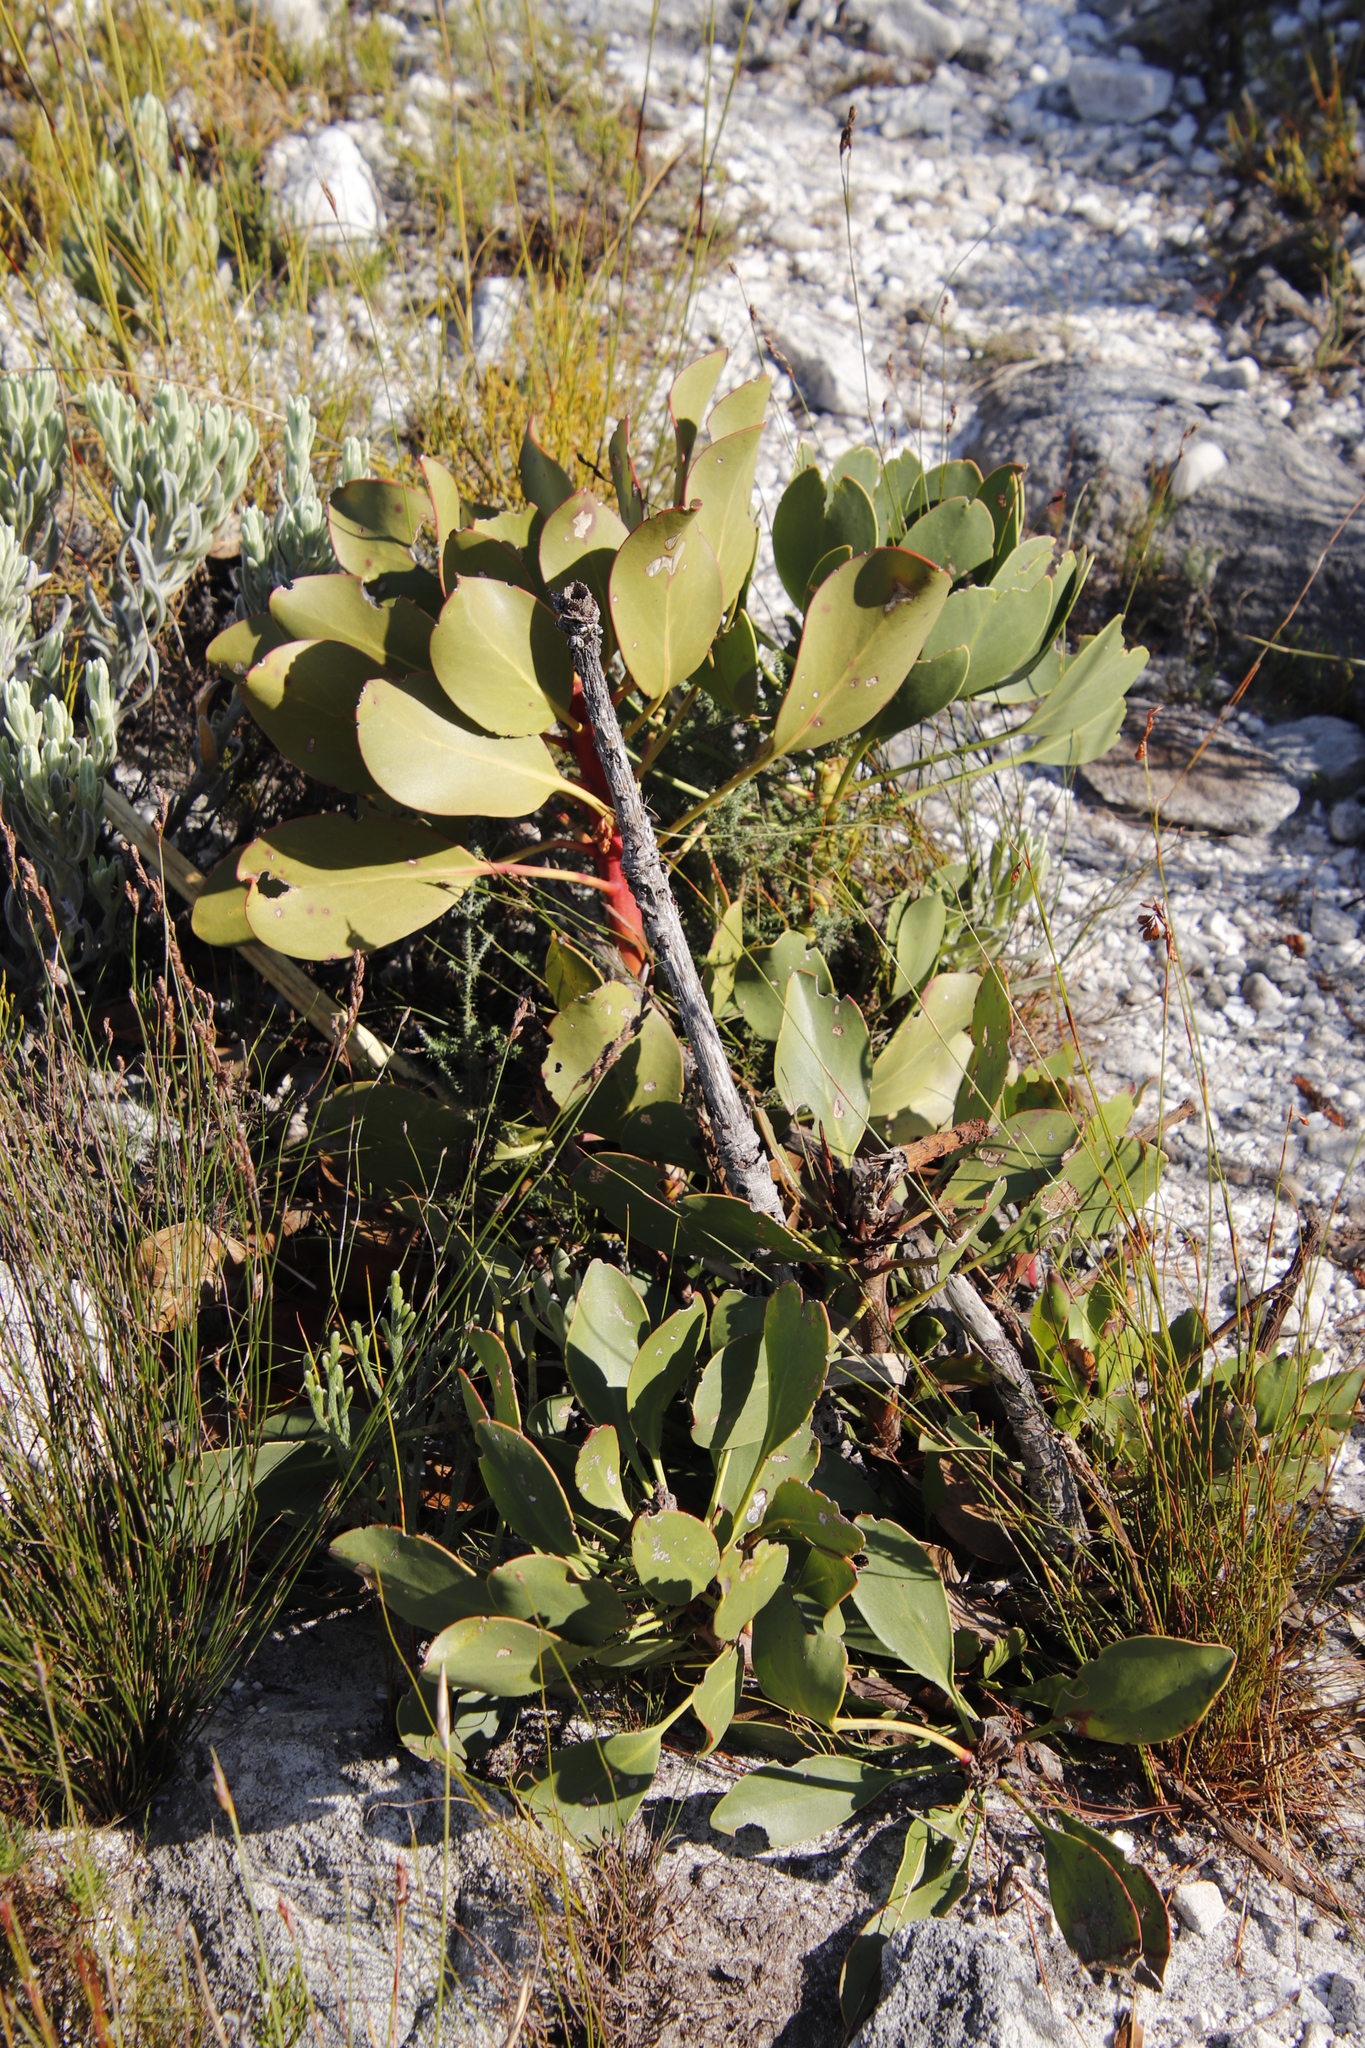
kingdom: Plantae
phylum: Tracheophyta
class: Magnoliopsida
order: Proteales
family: Proteaceae
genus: Protea
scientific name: Protea cynaroides
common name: King protea
